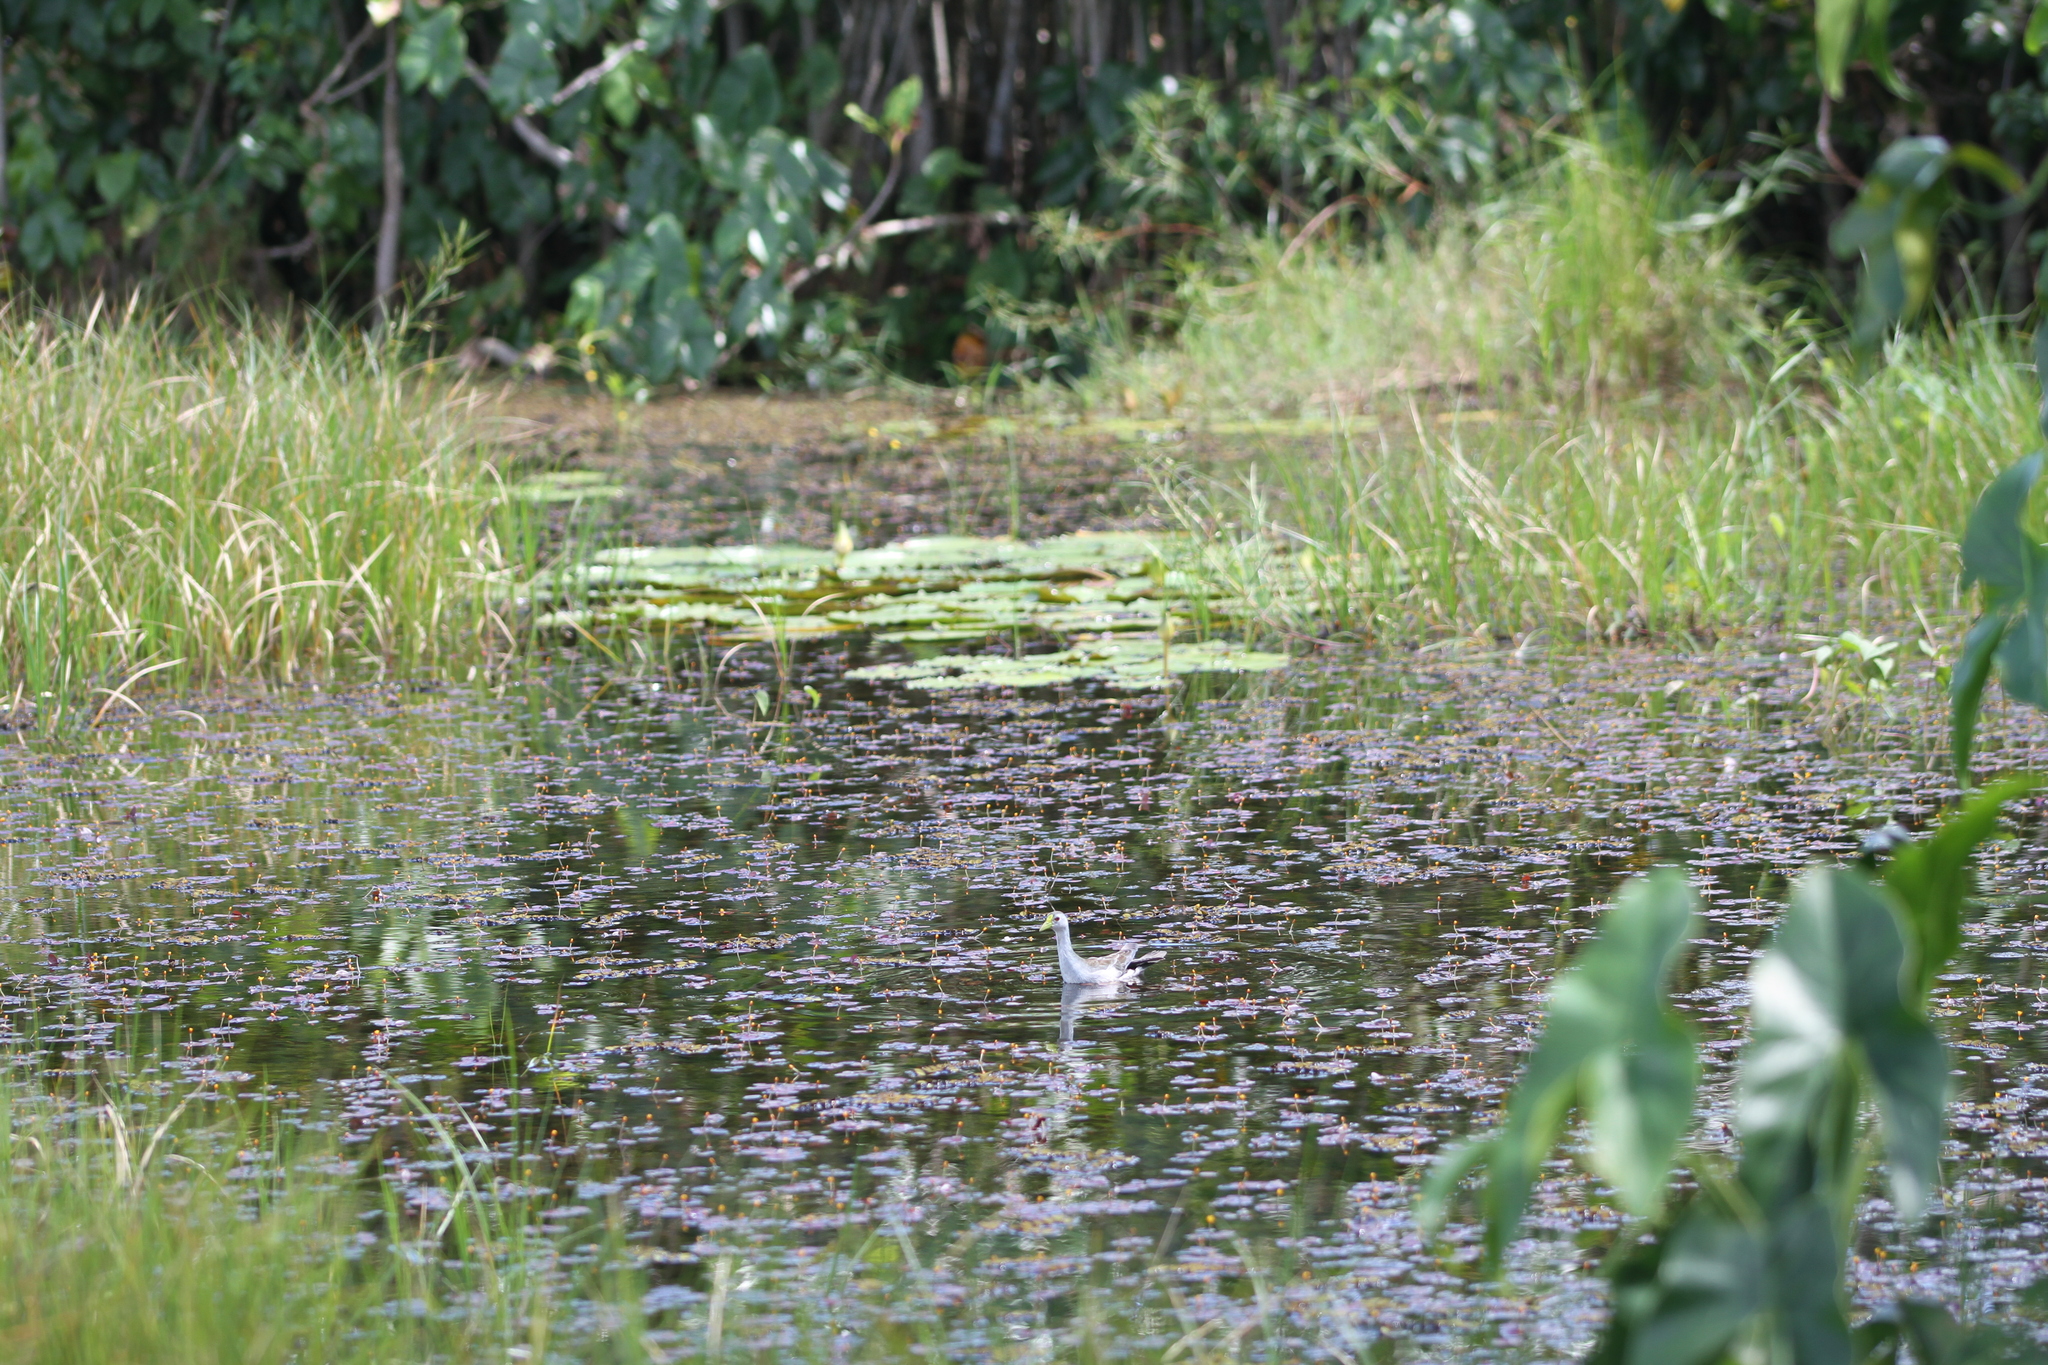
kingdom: Animalia
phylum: Chordata
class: Aves
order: Gruiformes
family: Rallidae
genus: Porphyrio
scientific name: Porphyrio flavirostris
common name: Azure gallinule
